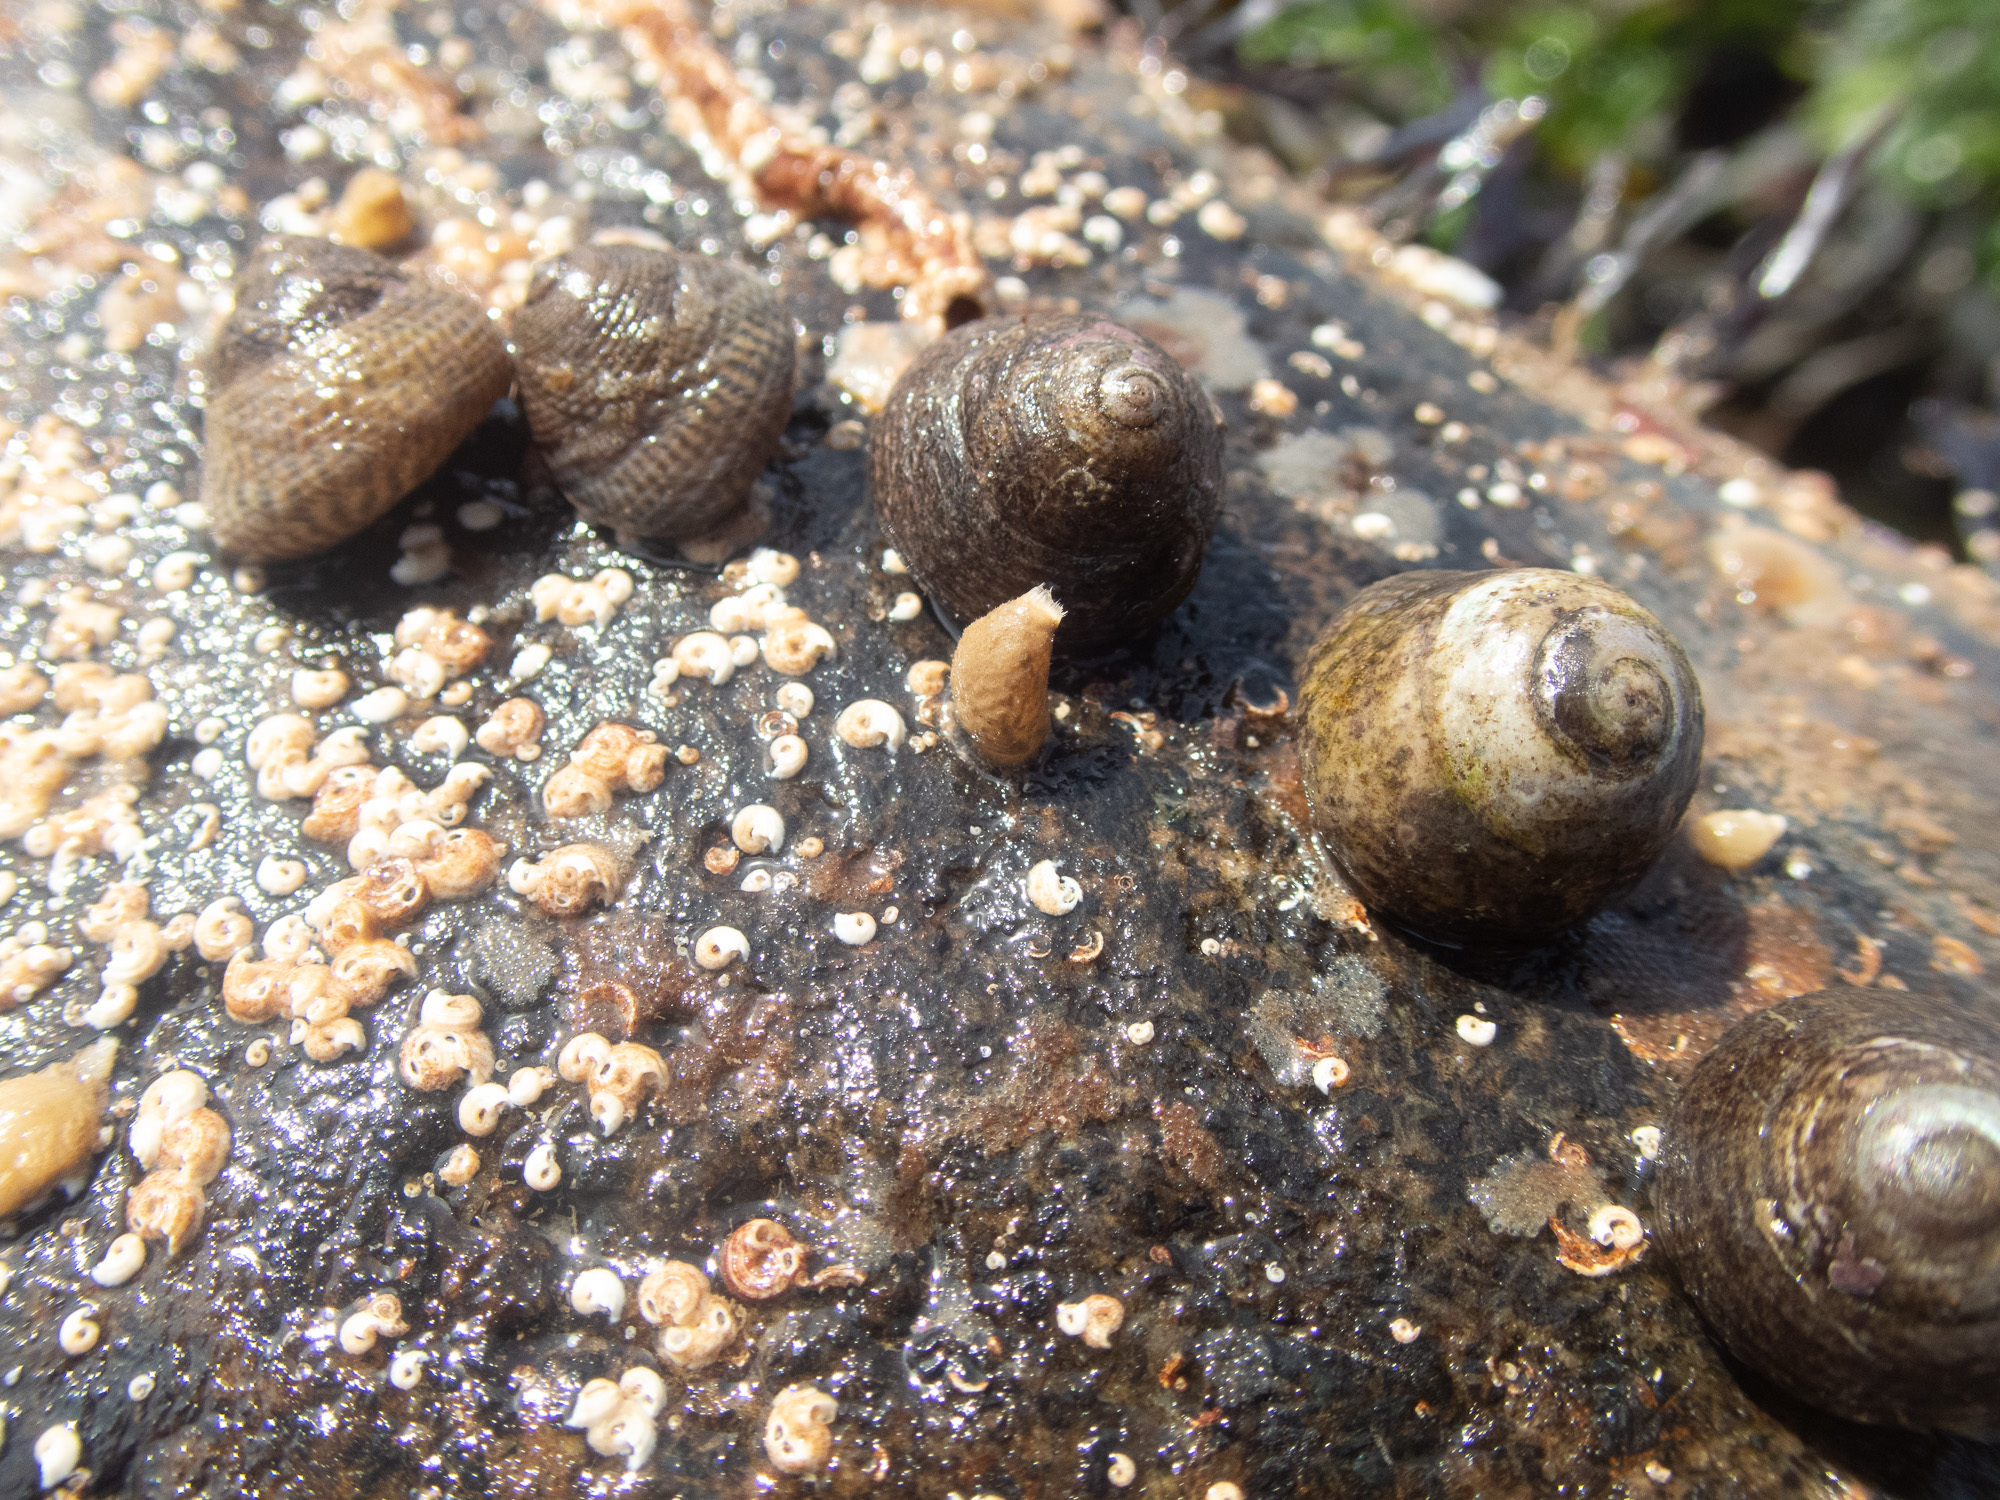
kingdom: Animalia
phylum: Mollusca
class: Gastropoda
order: Trochida
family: Trochidae
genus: Steromphala
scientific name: Steromphala cineraria
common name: Grey top shell
